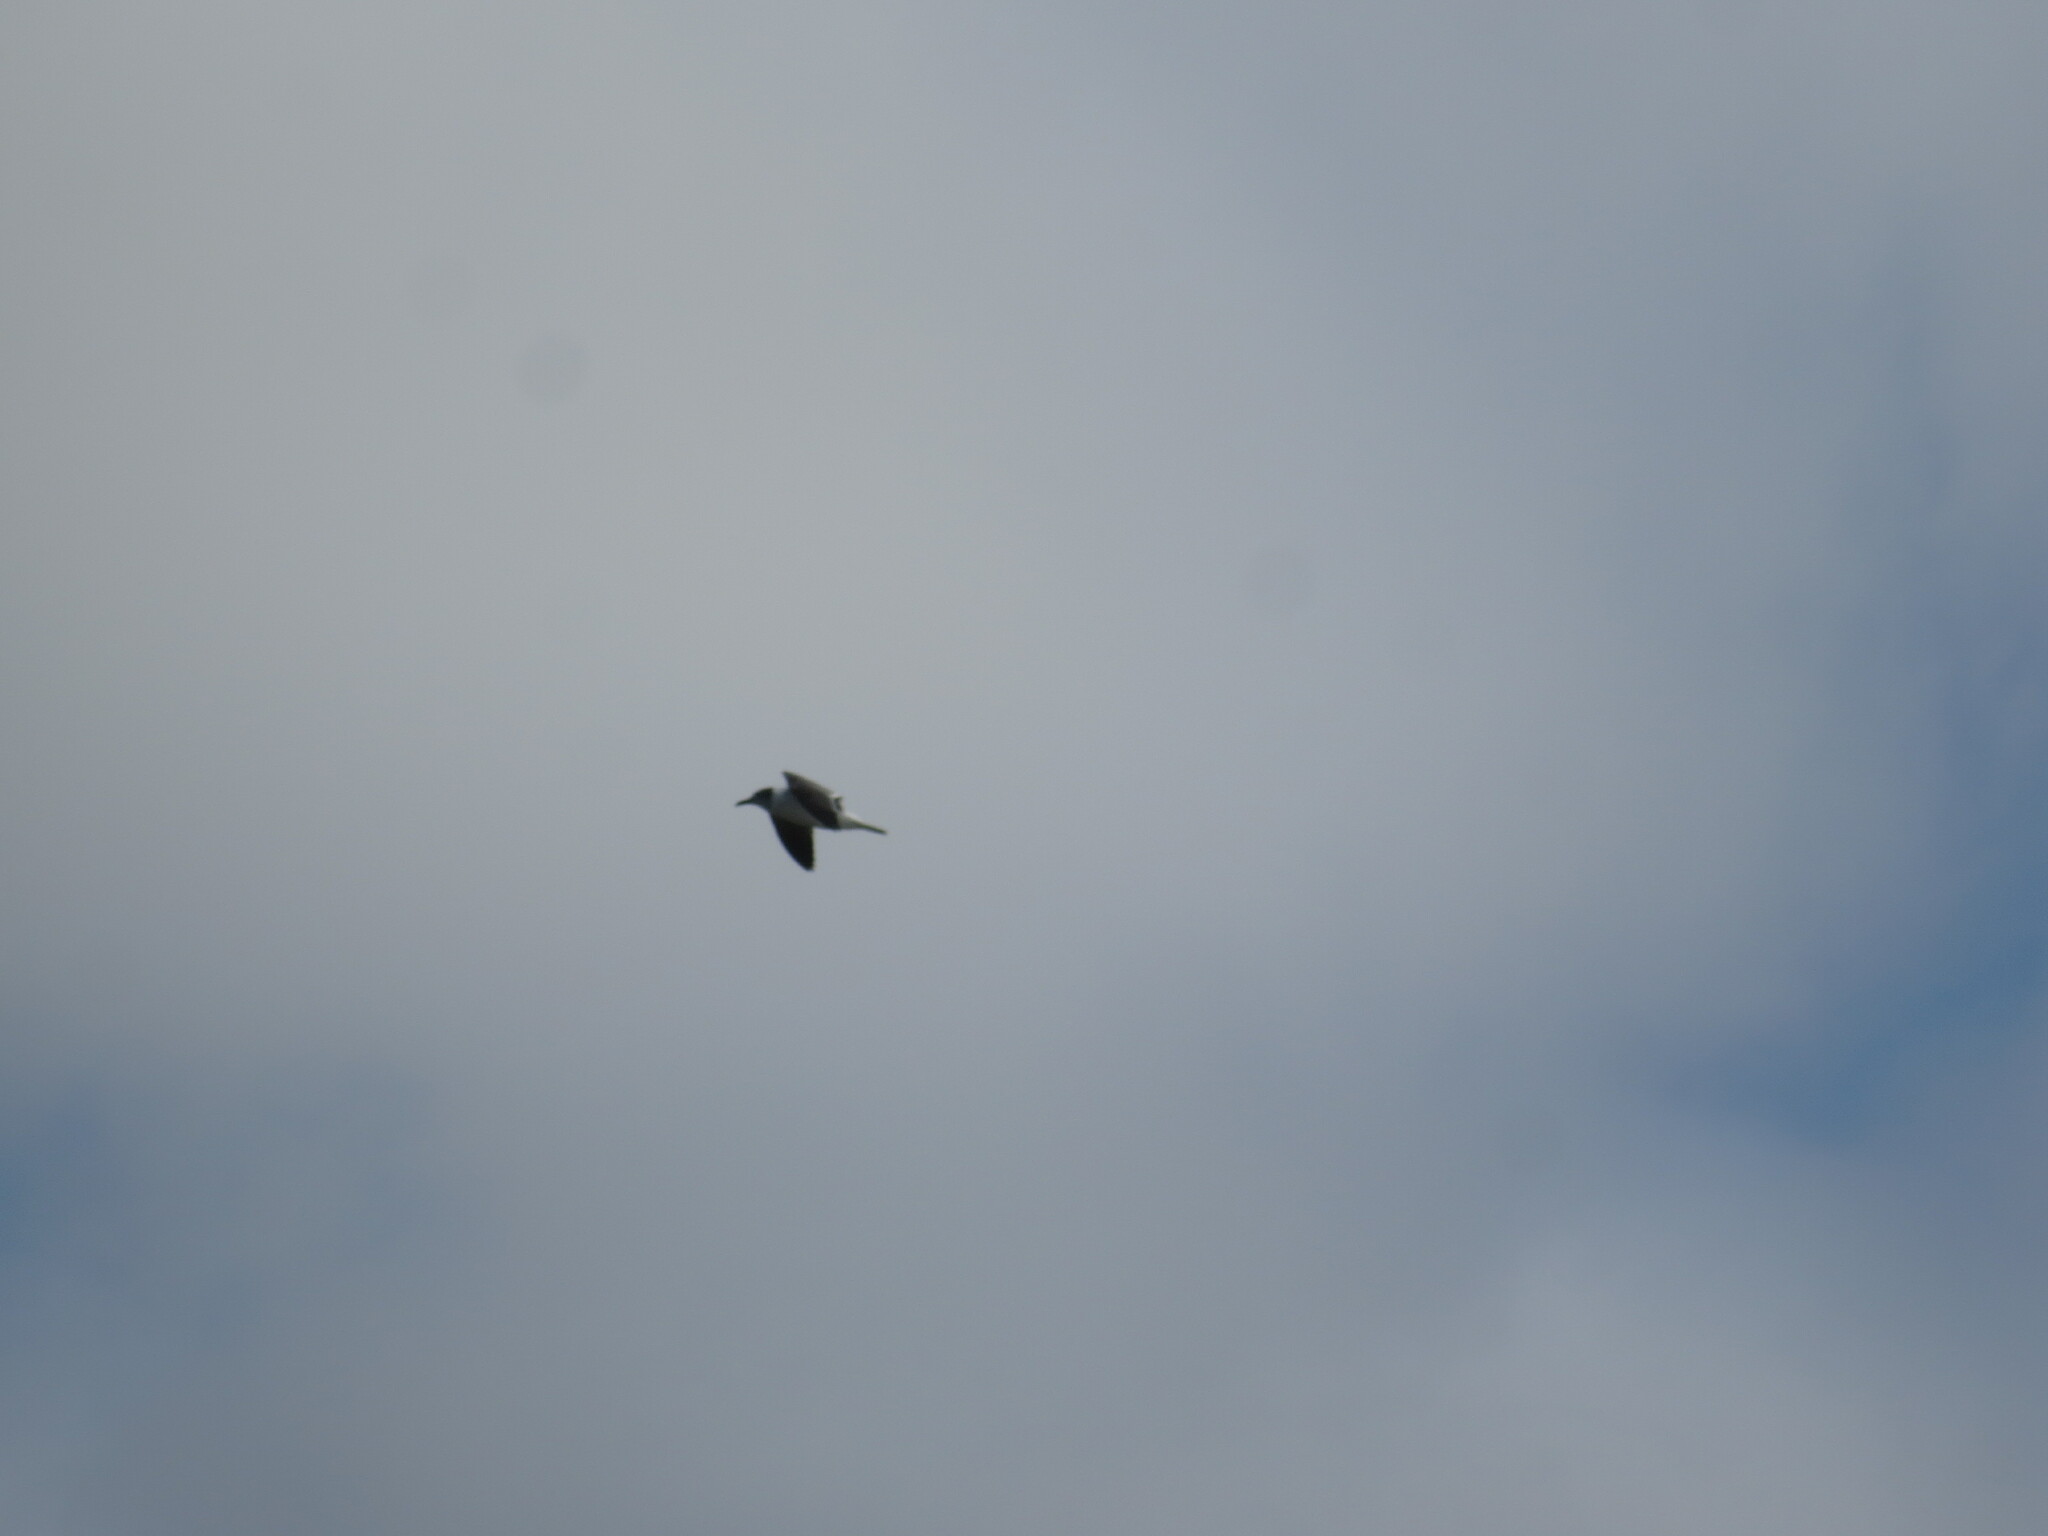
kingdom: Animalia
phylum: Chordata
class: Aves
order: Charadriiformes
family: Laridae
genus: Leucophaeus
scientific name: Leucophaeus atricilla
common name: Laughing gull
